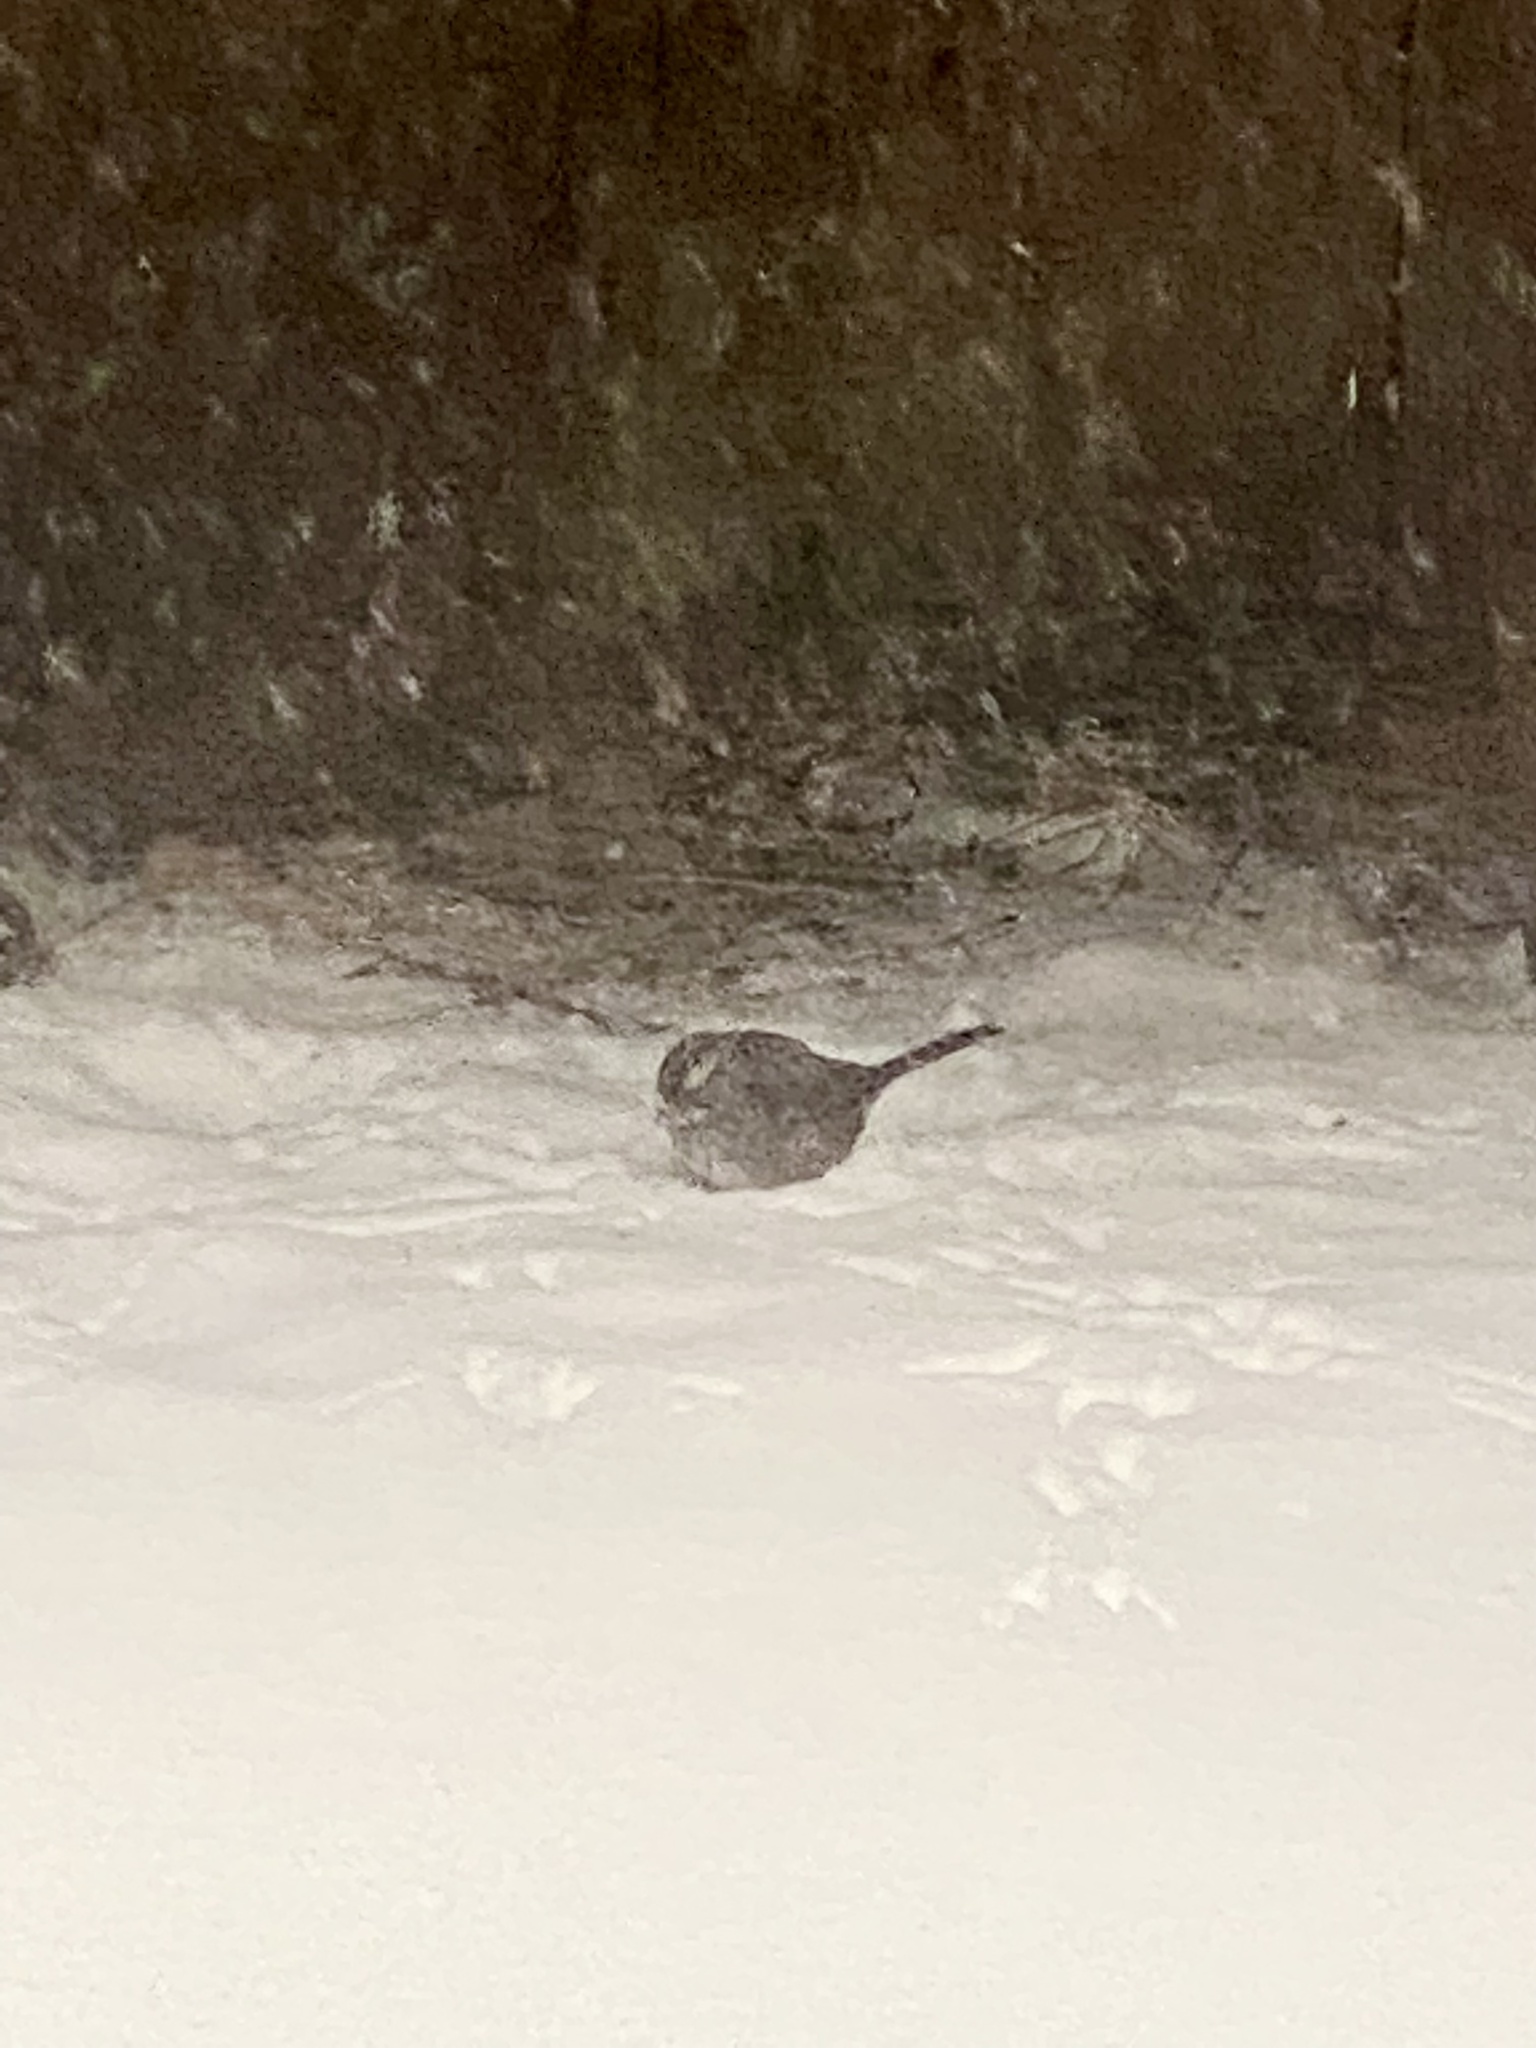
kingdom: Animalia
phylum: Chordata
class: Aves
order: Passeriformes
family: Passerellidae
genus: Zonotrichia
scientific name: Zonotrichia albicollis
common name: White-throated sparrow
